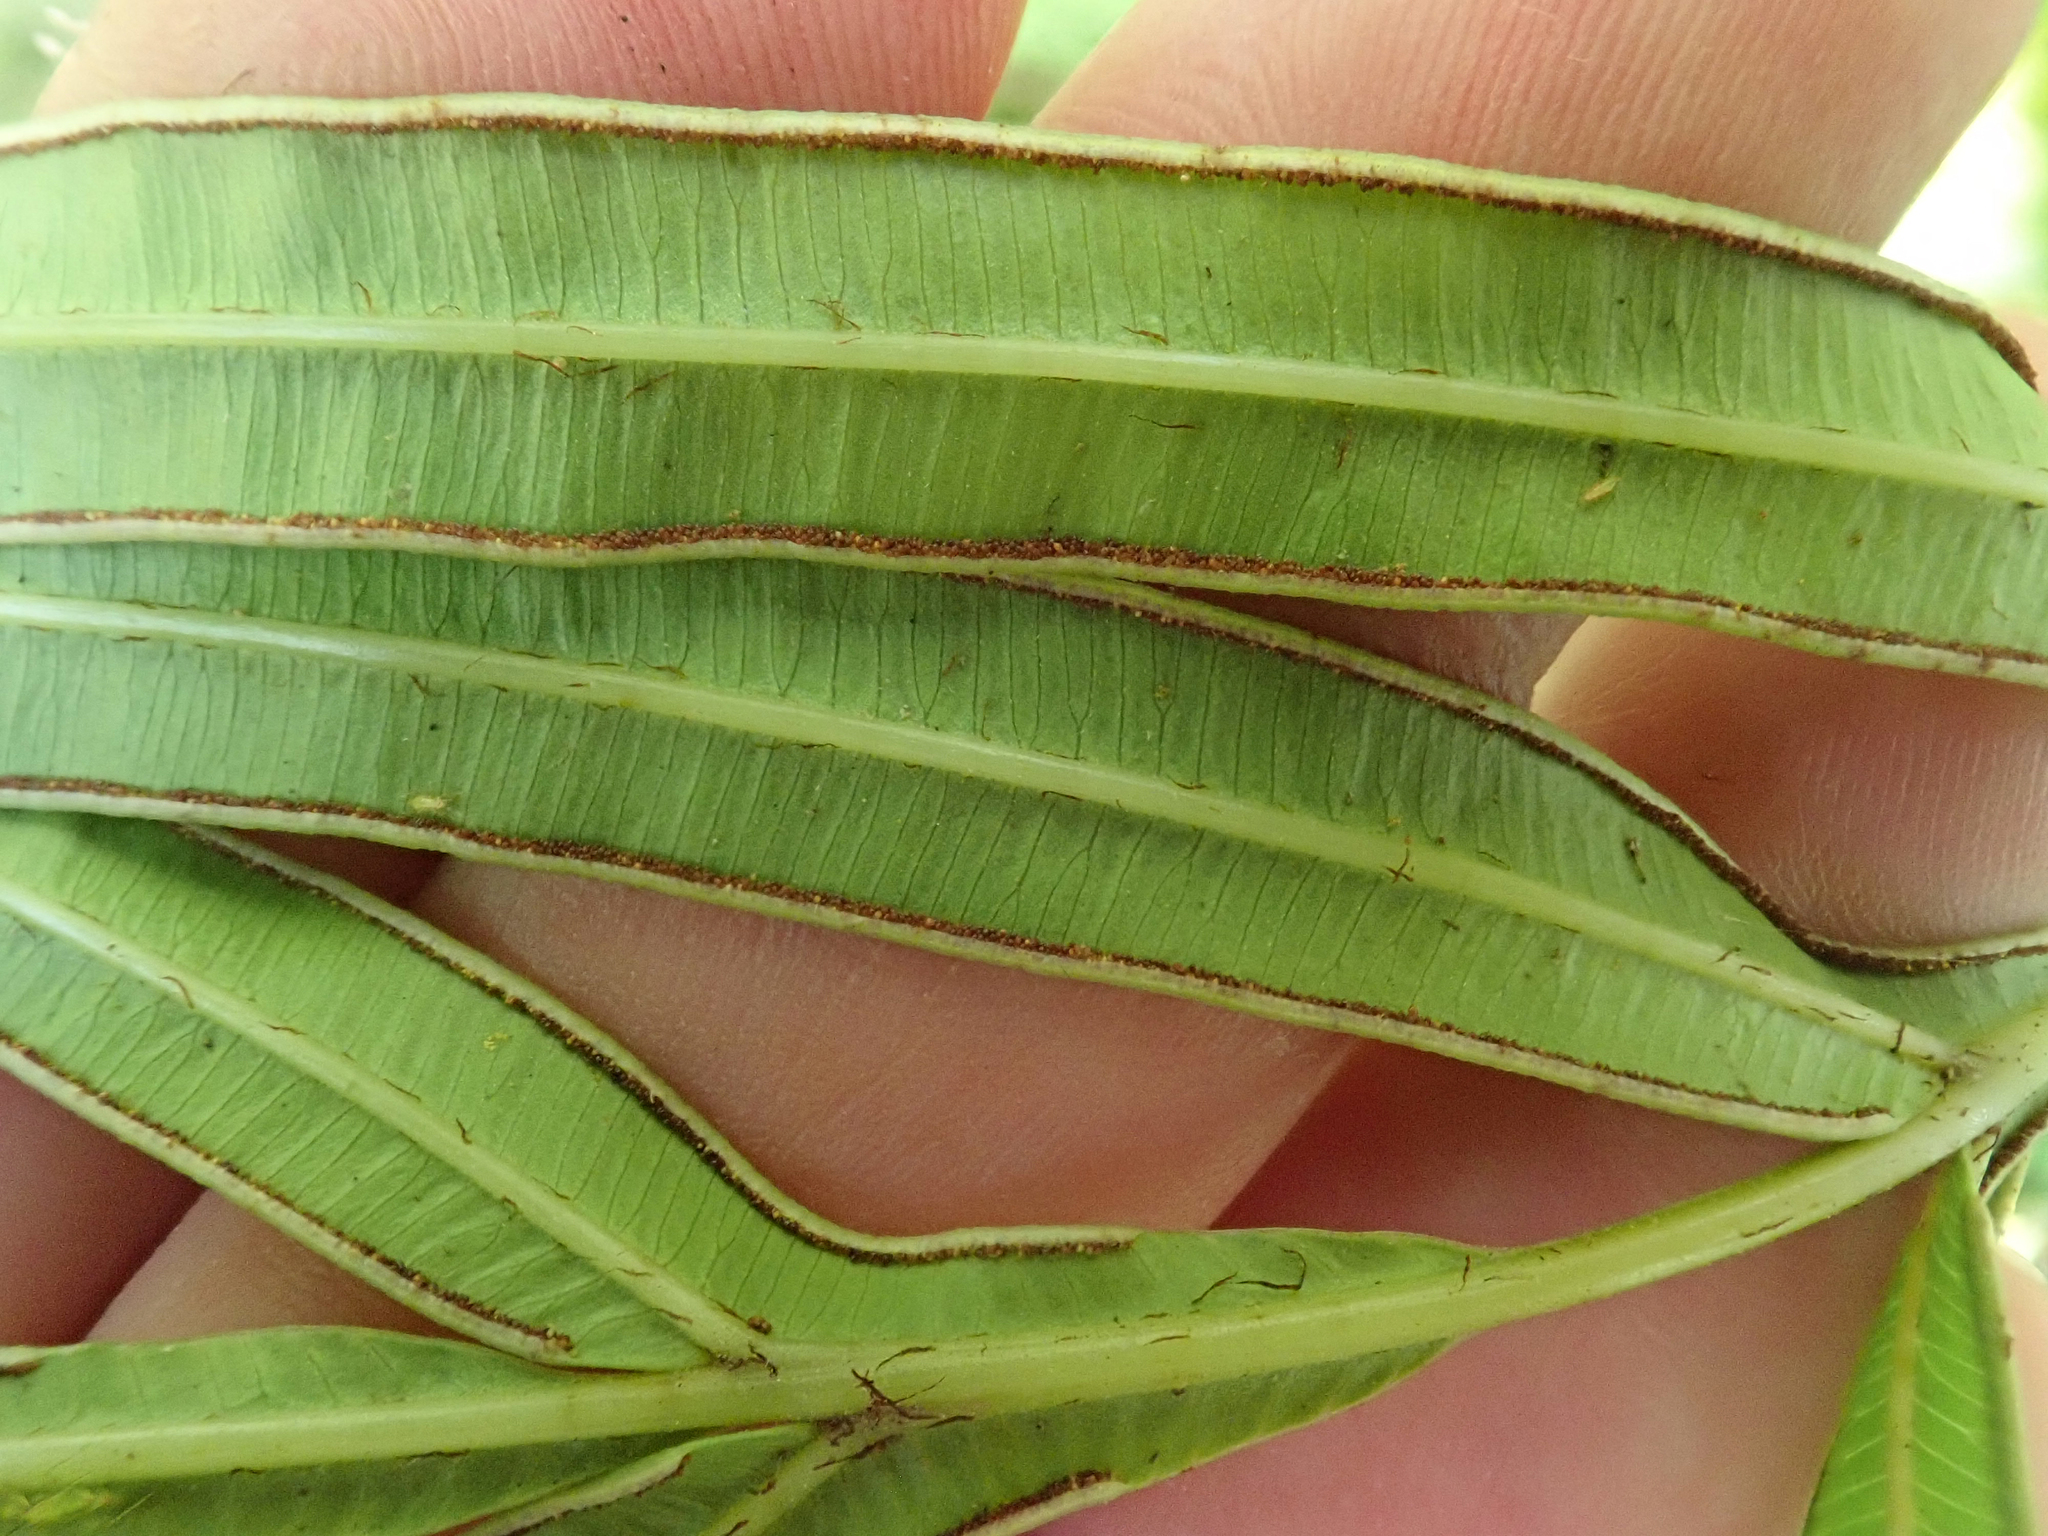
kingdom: Plantae
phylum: Tracheophyta
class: Polypodiopsida
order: Polypodiales
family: Pteridaceae
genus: Pteris
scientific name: Pteris cretica
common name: Ribbon fern
